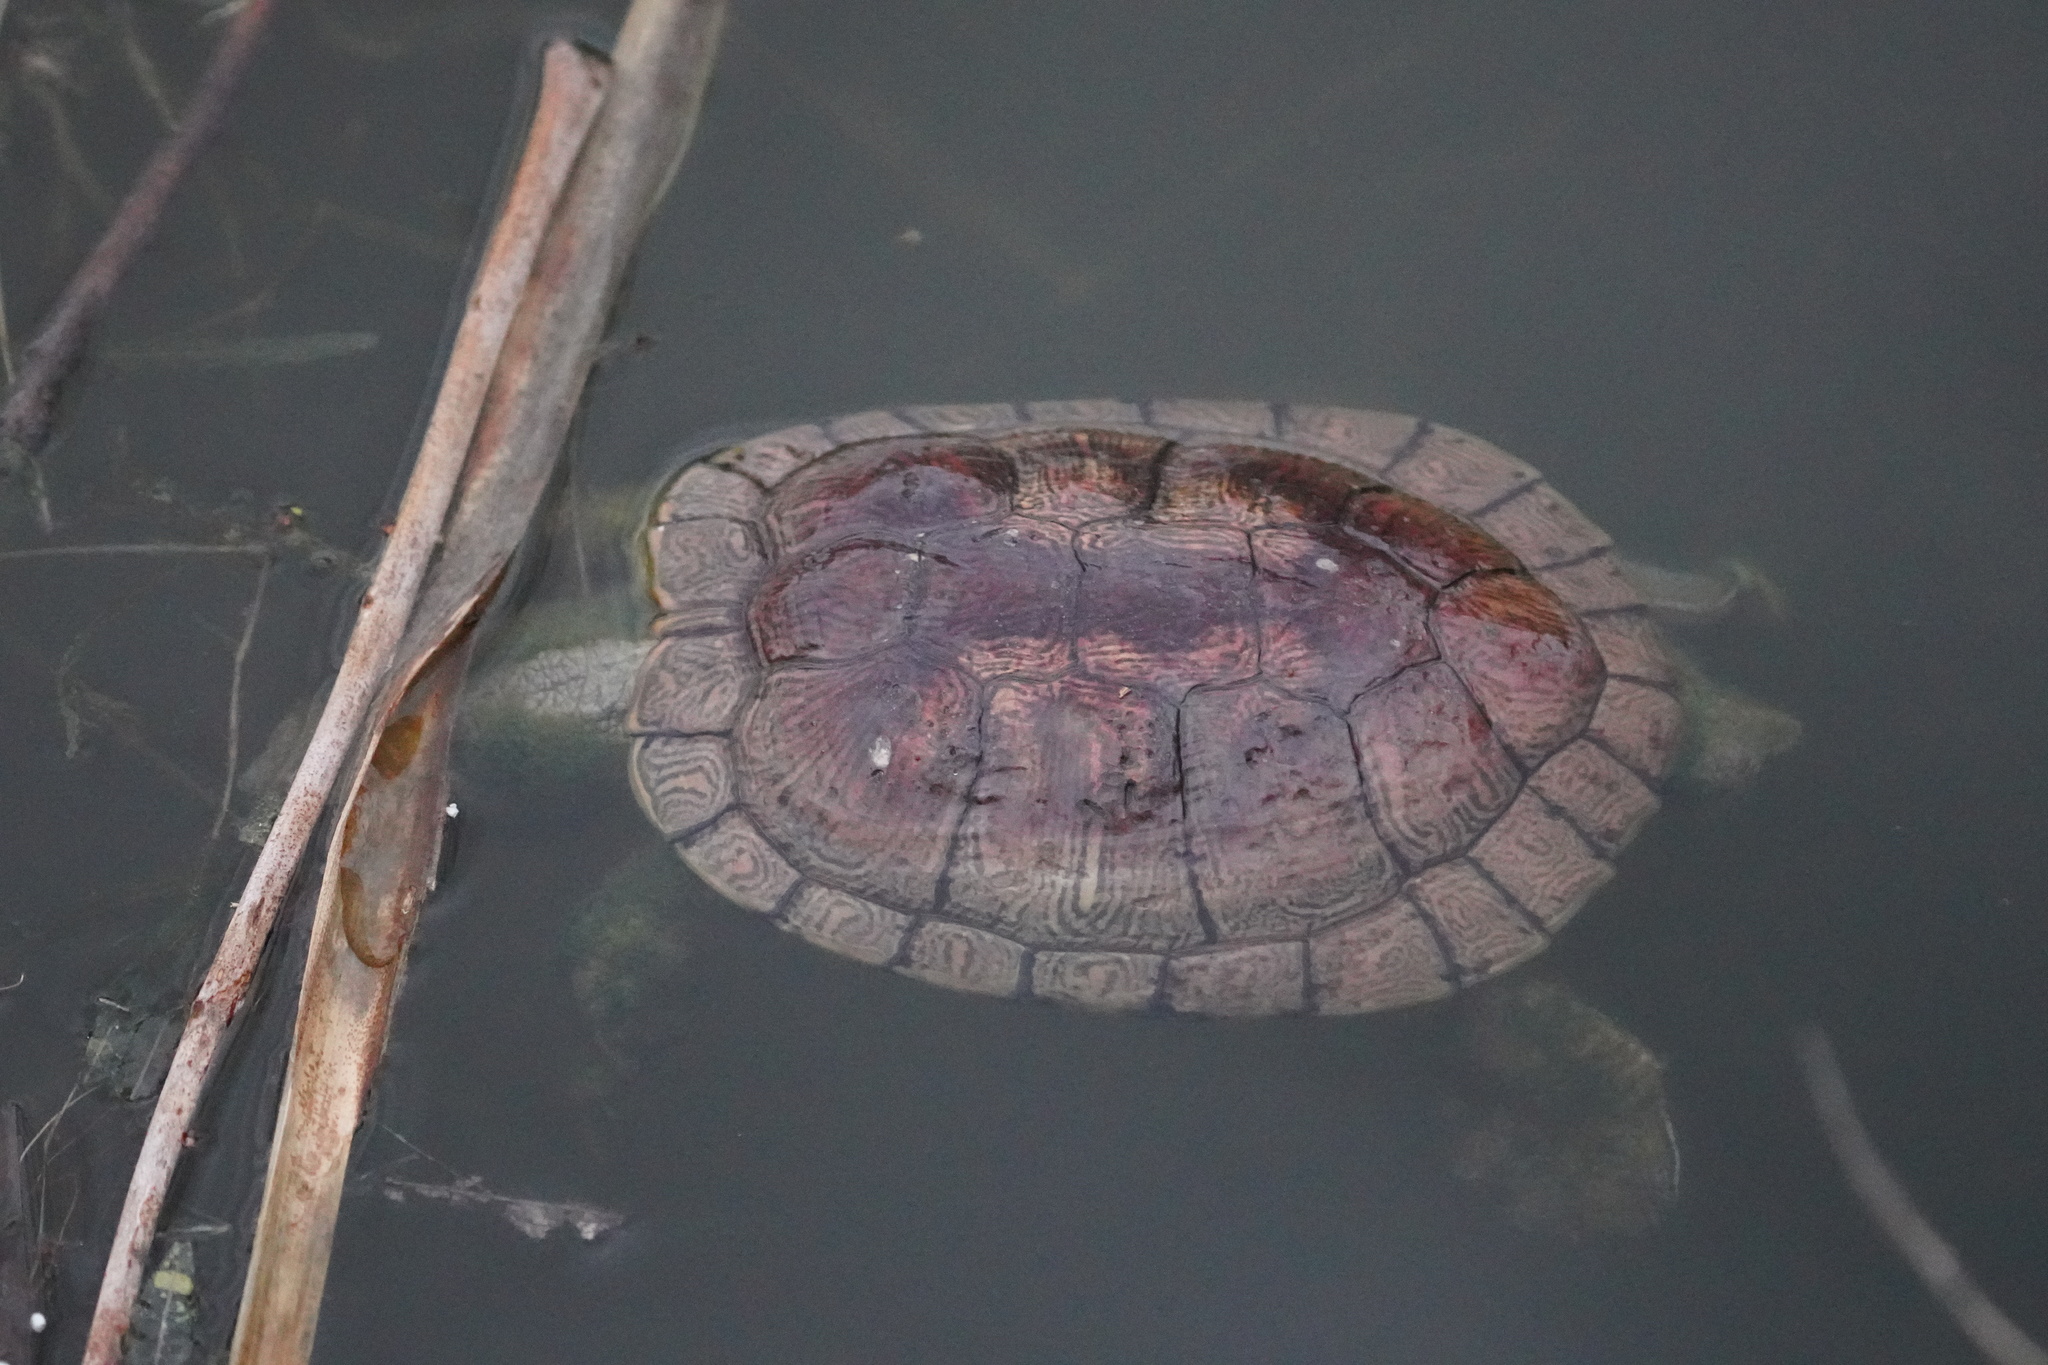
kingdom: Animalia
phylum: Chordata
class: Testudines
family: Emydidae
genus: Trachemys
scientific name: Trachemys scripta
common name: Slider
